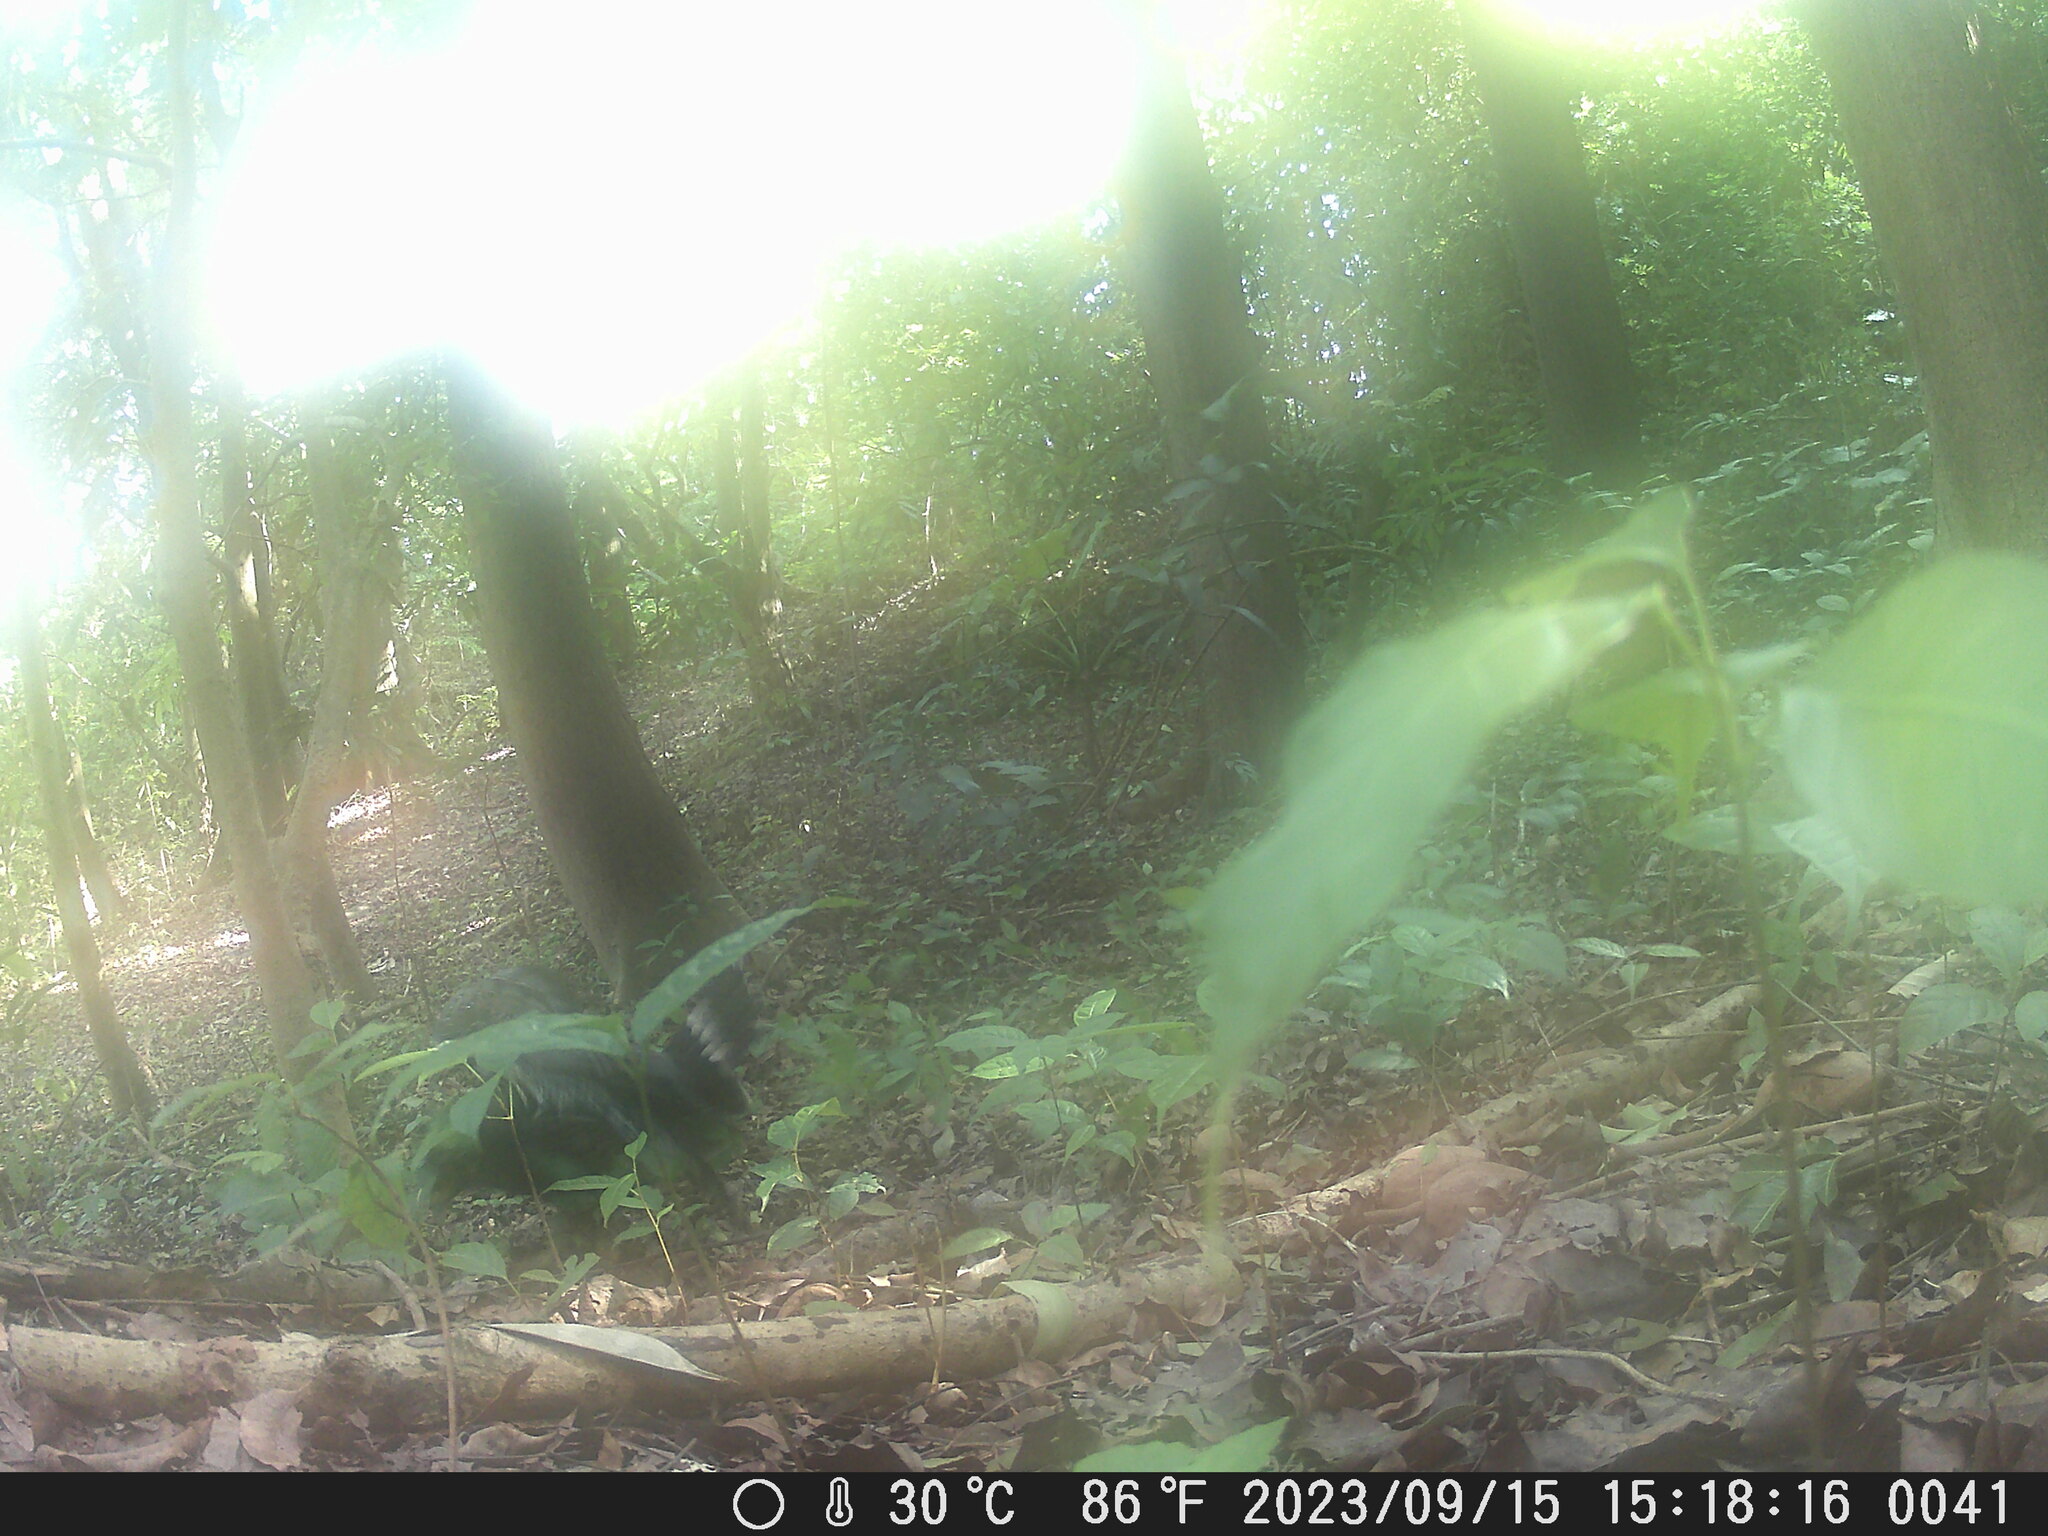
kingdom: Animalia
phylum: Chordata
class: Aves
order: Accipitriformes
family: Accipitridae
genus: Spilornis
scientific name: Spilornis cheela
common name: Crested serpent eagle
